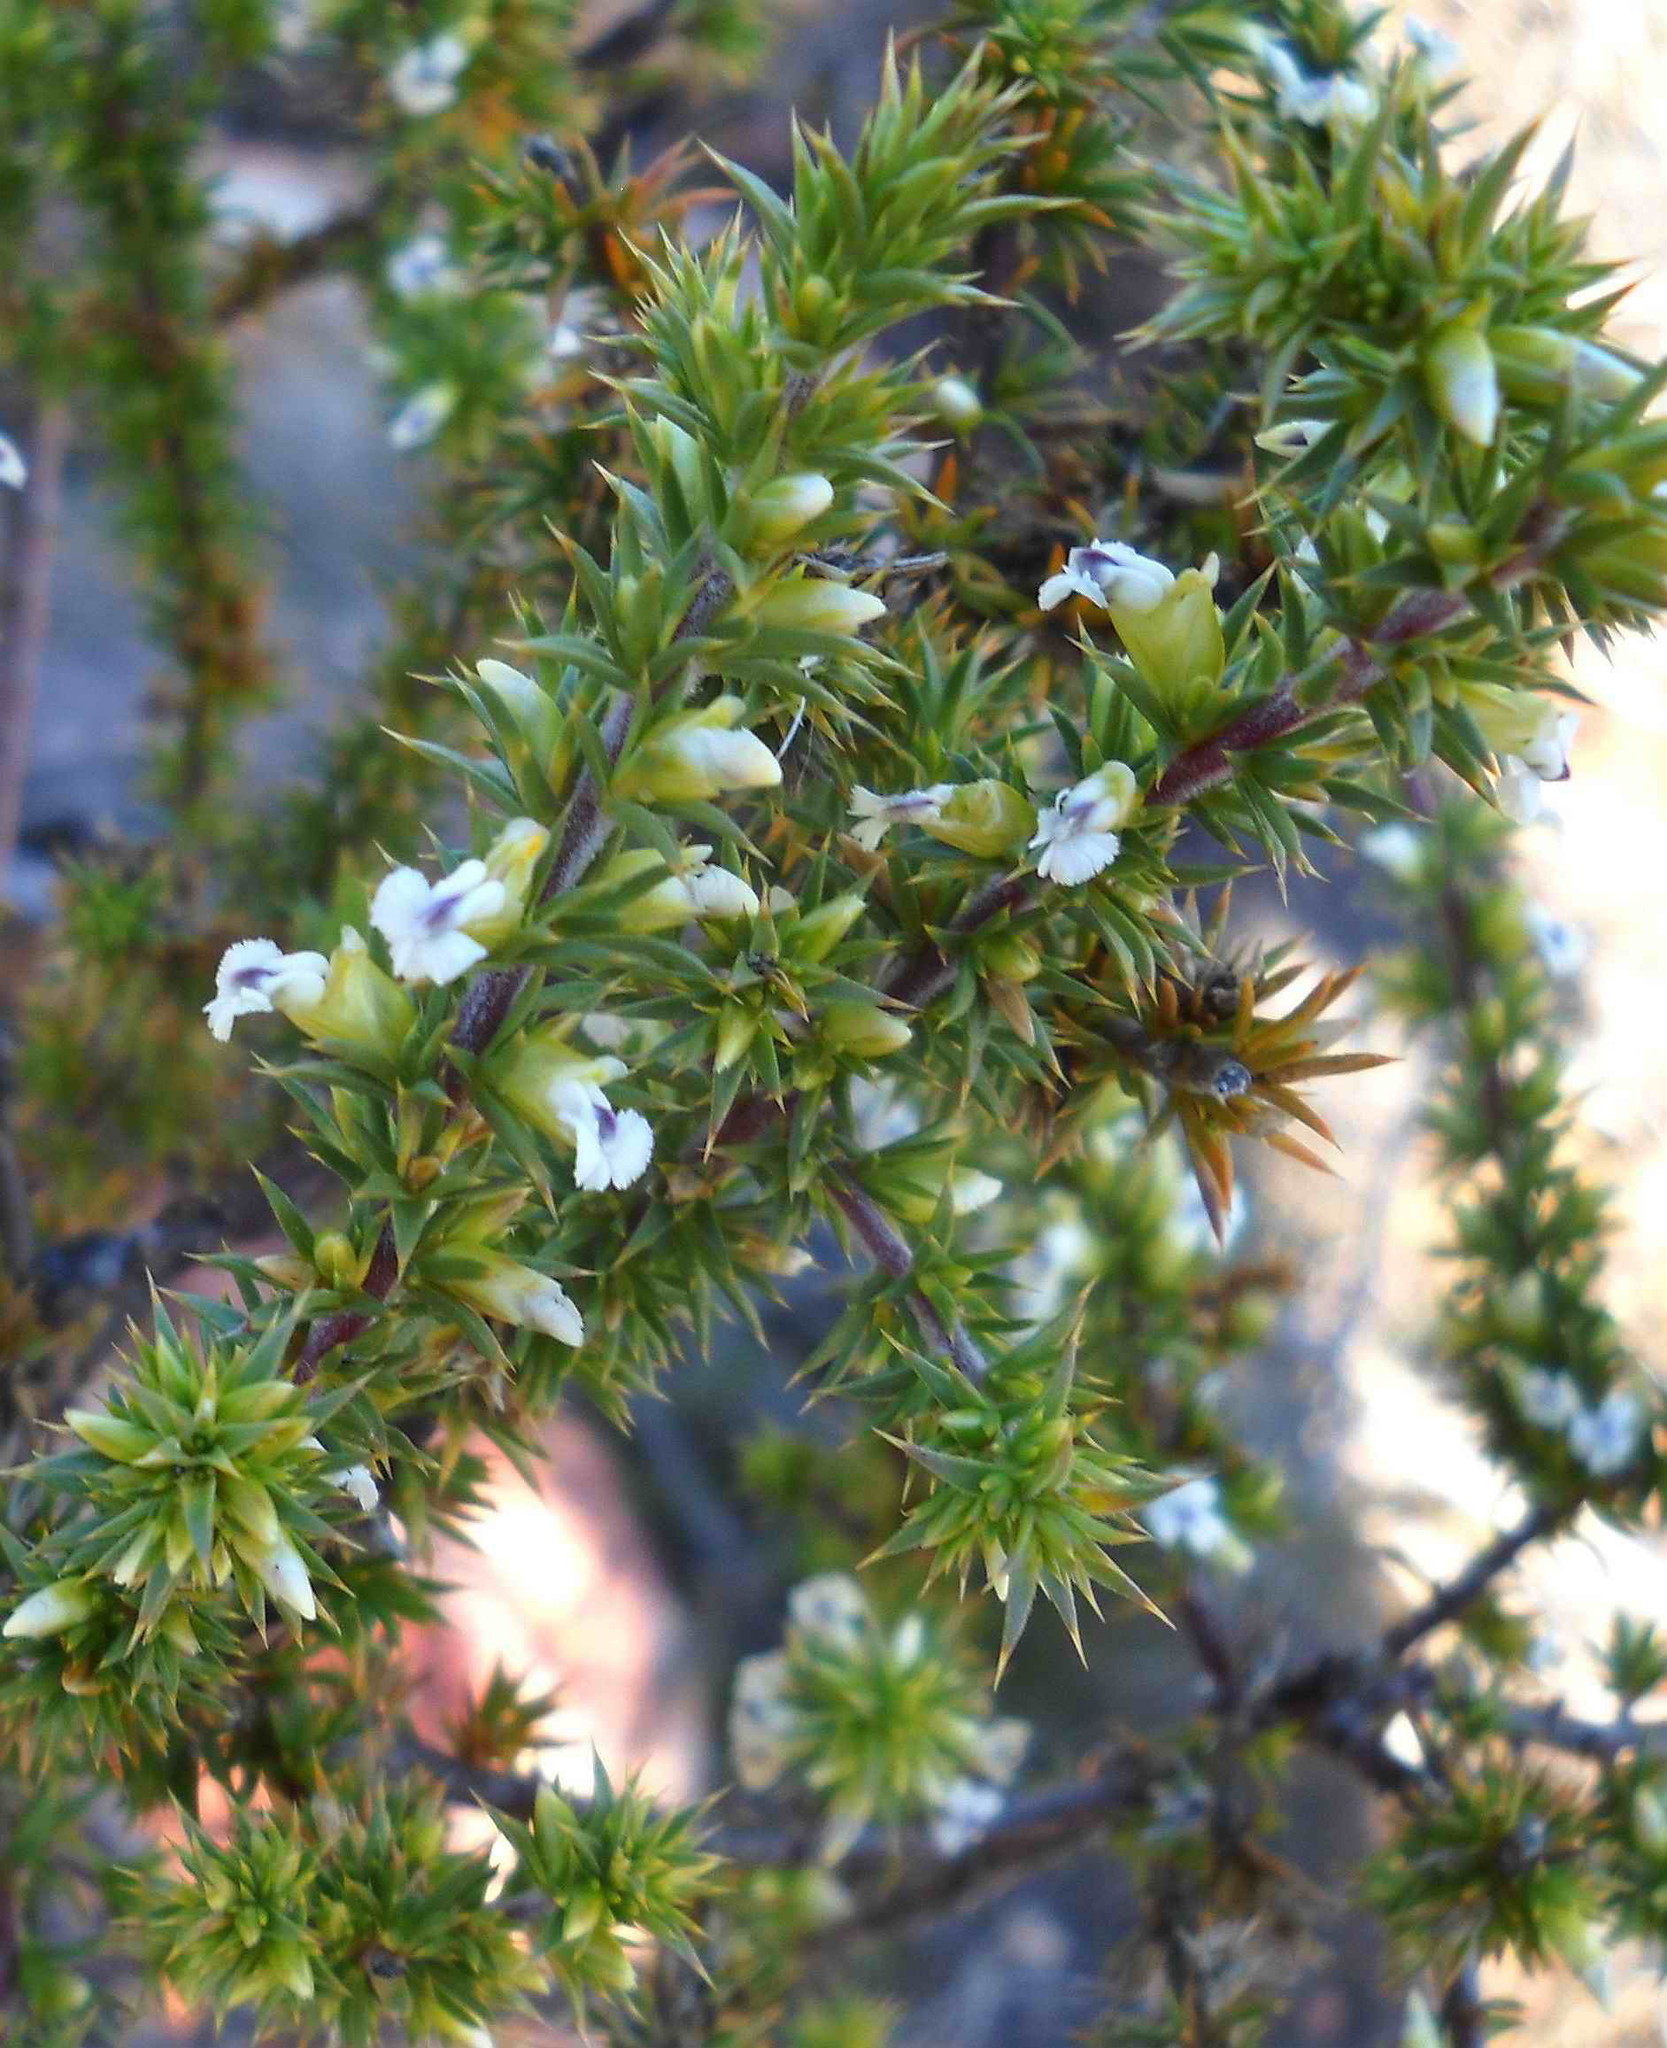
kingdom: Plantae
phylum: Tracheophyta
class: Magnoliopsida
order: Fabales
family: Polygalaceae
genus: Muraltia
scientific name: Muraltia ericifolia
